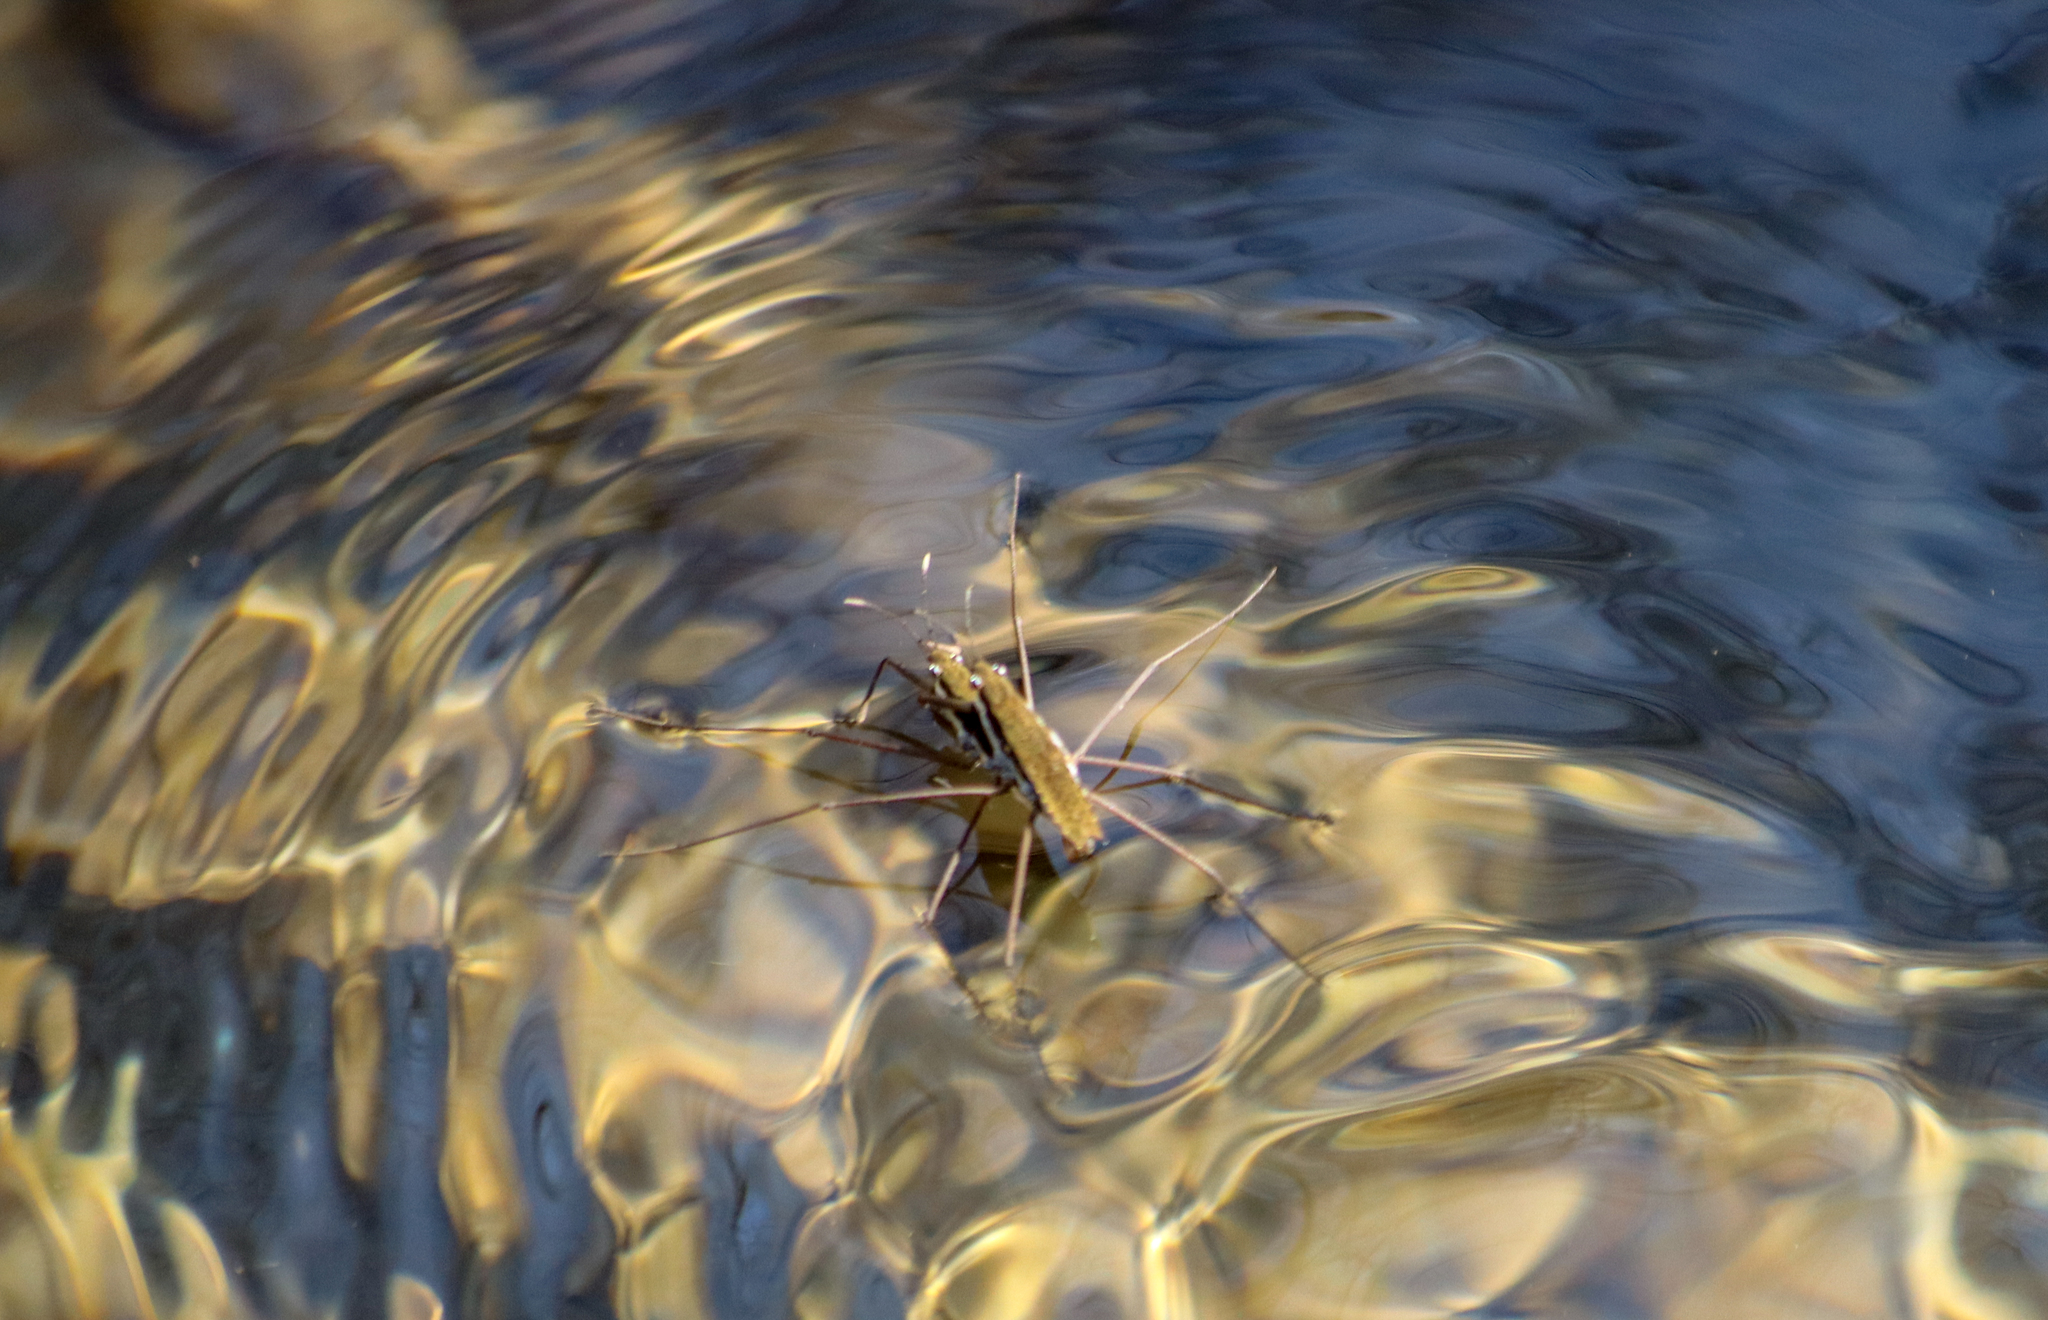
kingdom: Animalia
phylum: Arthropoda
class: Insecta
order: Hemiptera
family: Gerridae
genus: Aquarius
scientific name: Aquarius remigis
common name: Common water strider
